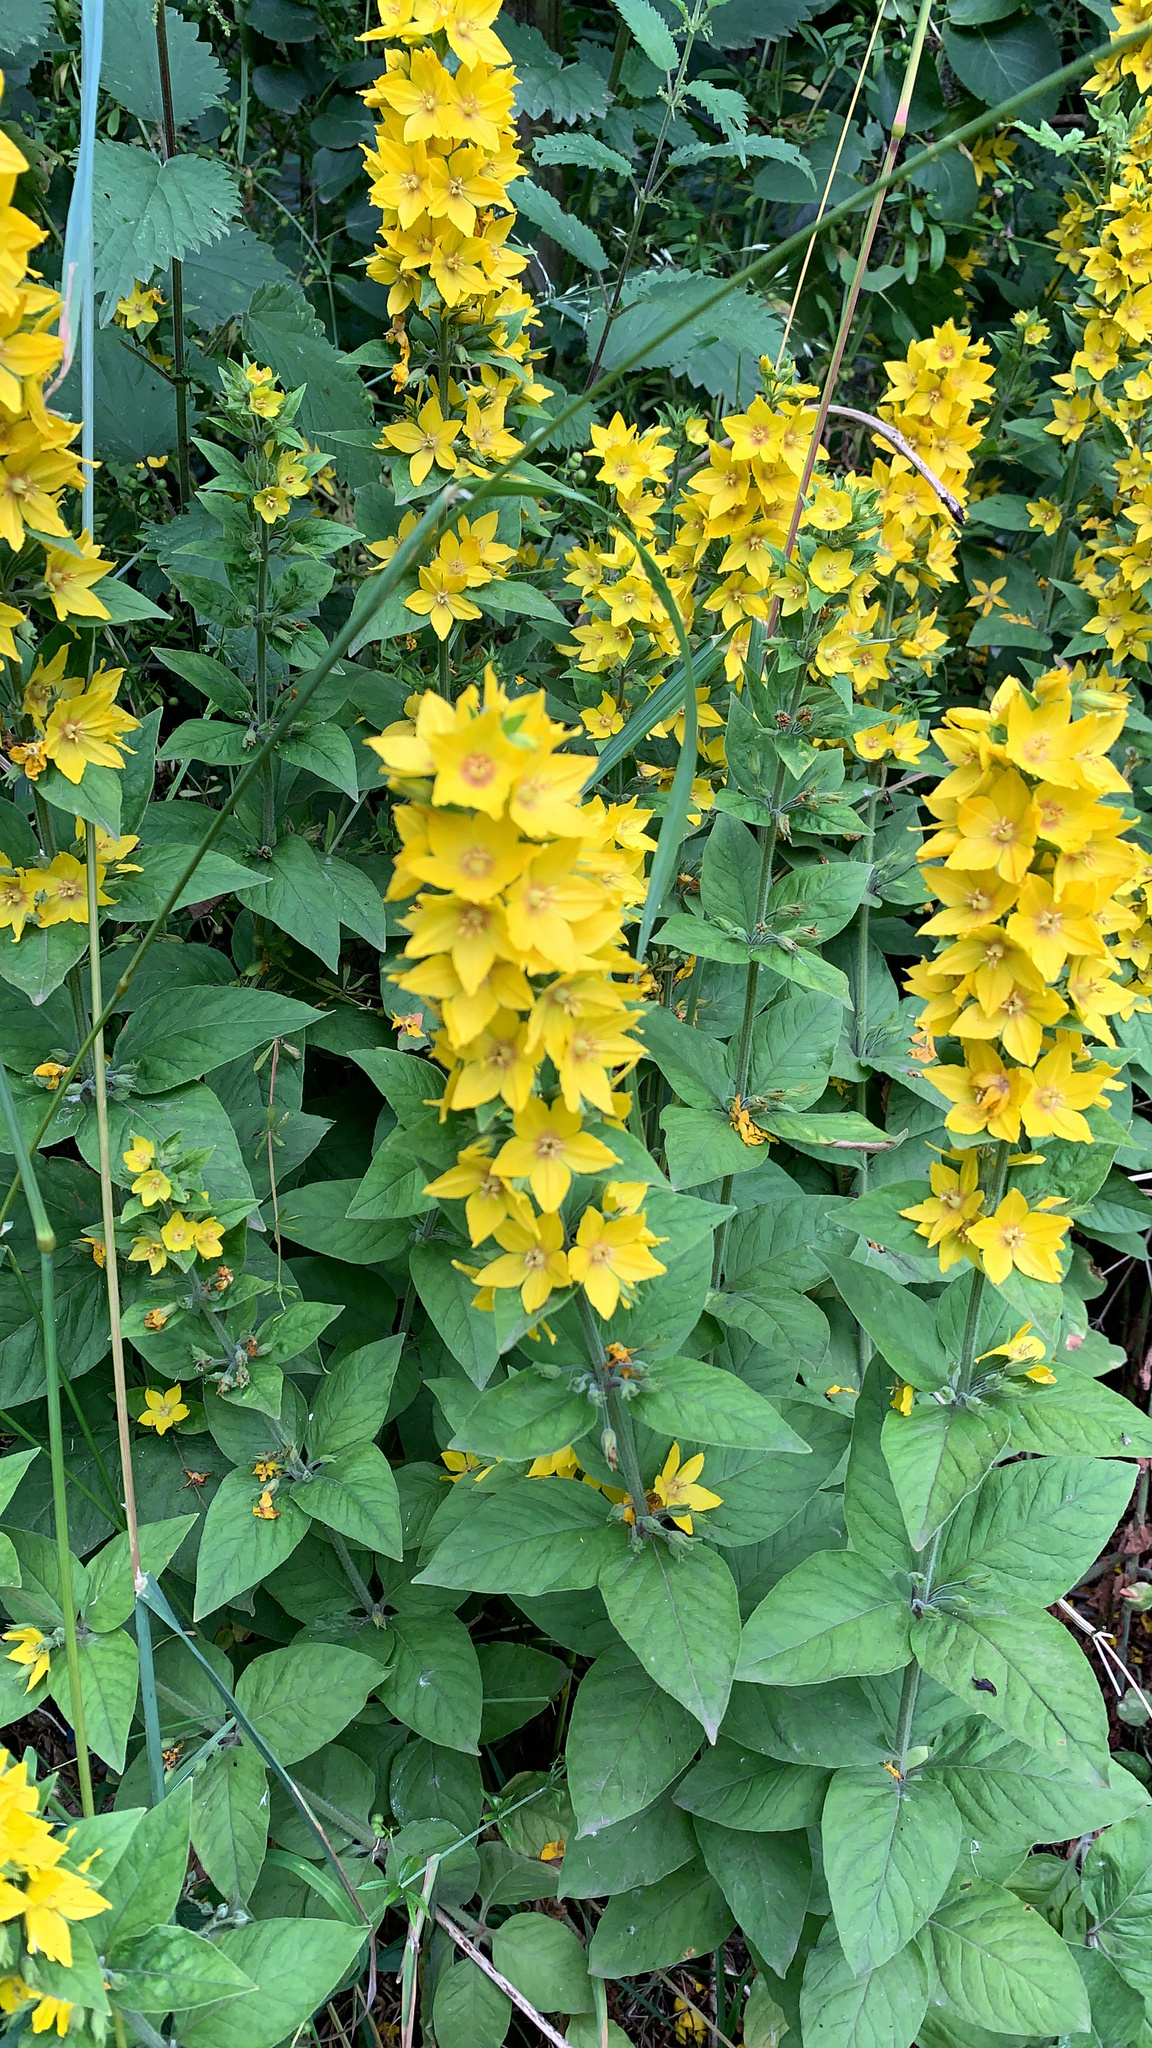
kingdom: Plantae
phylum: Tracheophyta
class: Magnoliopsida
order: Ericales
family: Primulaceae
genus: Lysimachia
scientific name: Lysimachia punctata
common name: Dotted loosestrife
